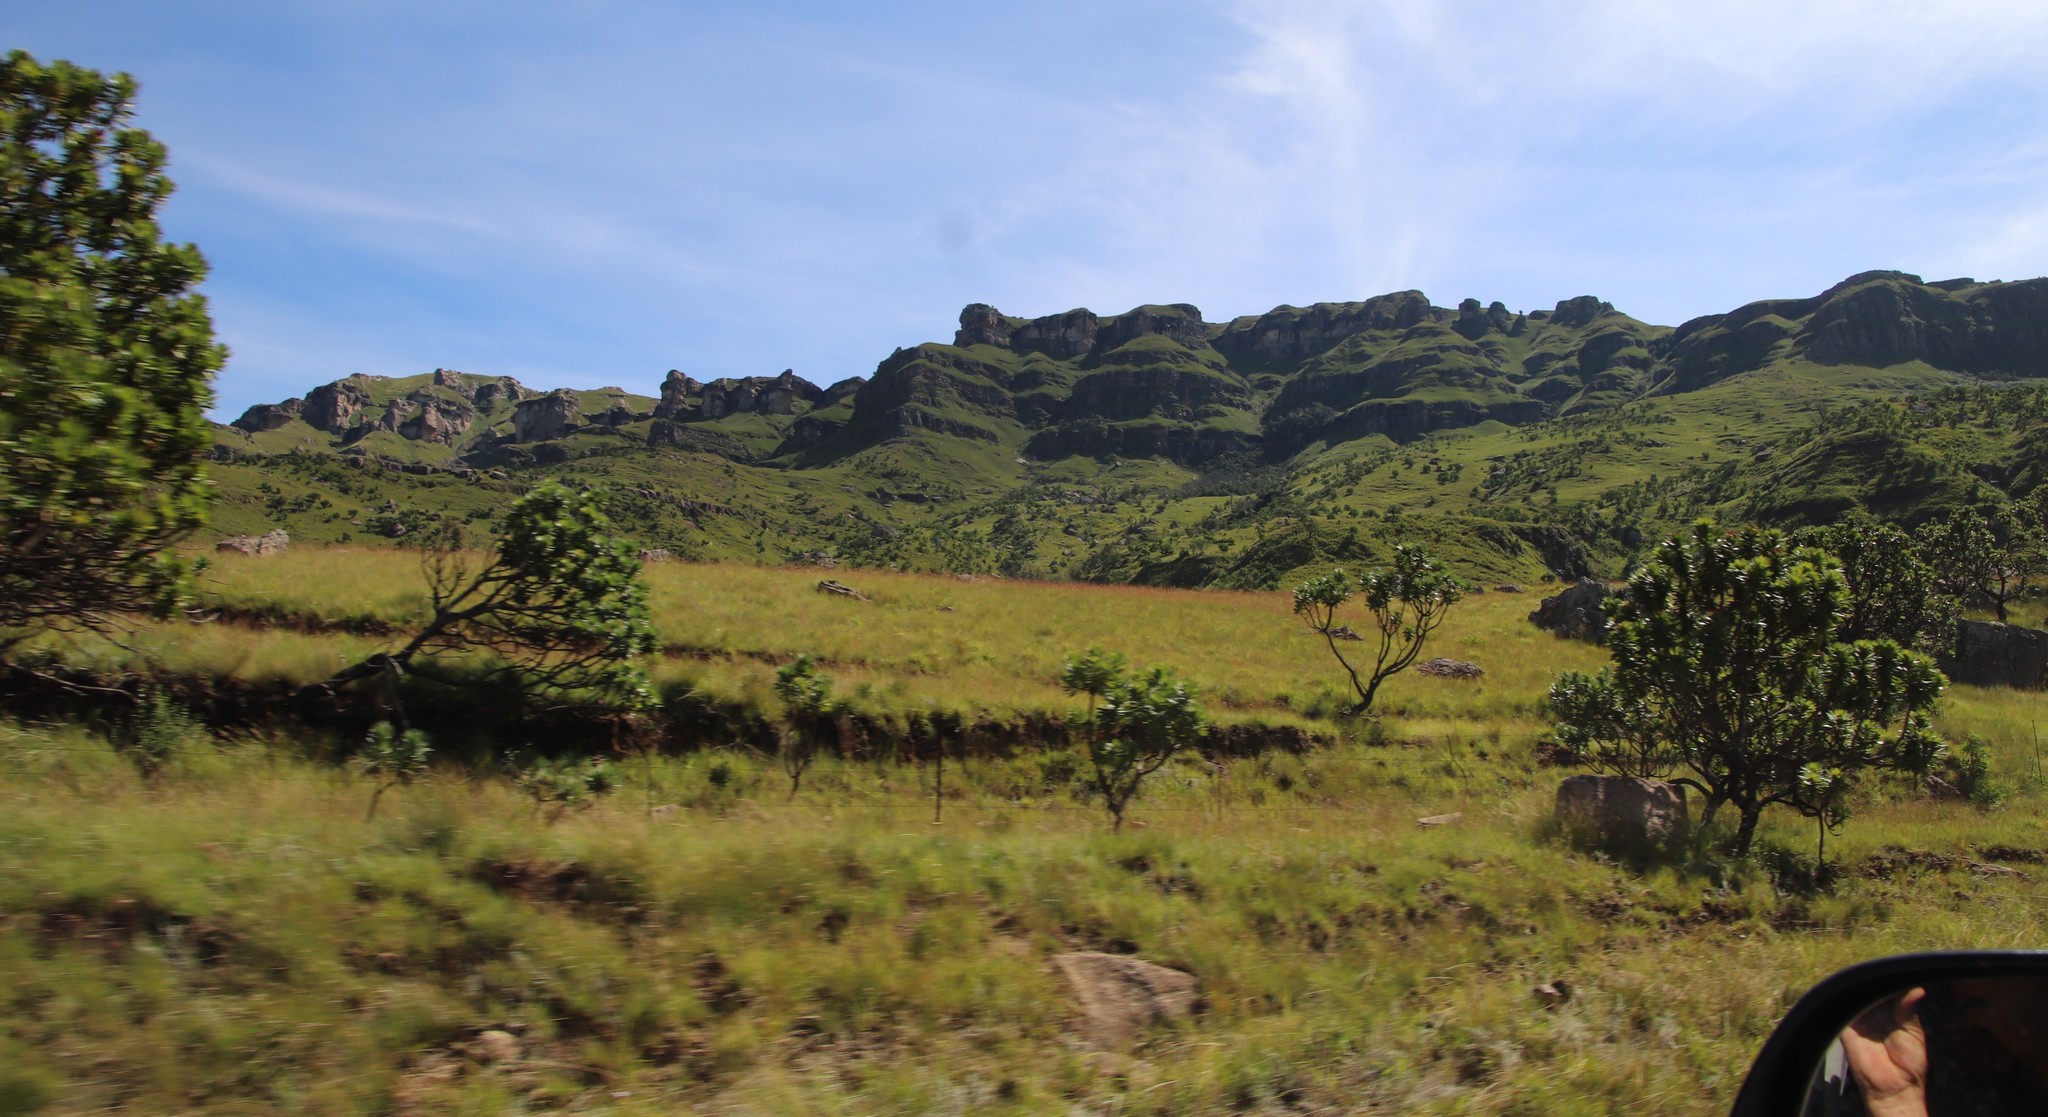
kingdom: Plantae
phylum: Tracheophyta
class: Magnoliopsida
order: Proteales
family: Proteaceae
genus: Protea
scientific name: Protea roupelliae
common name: Silver sugarbush
